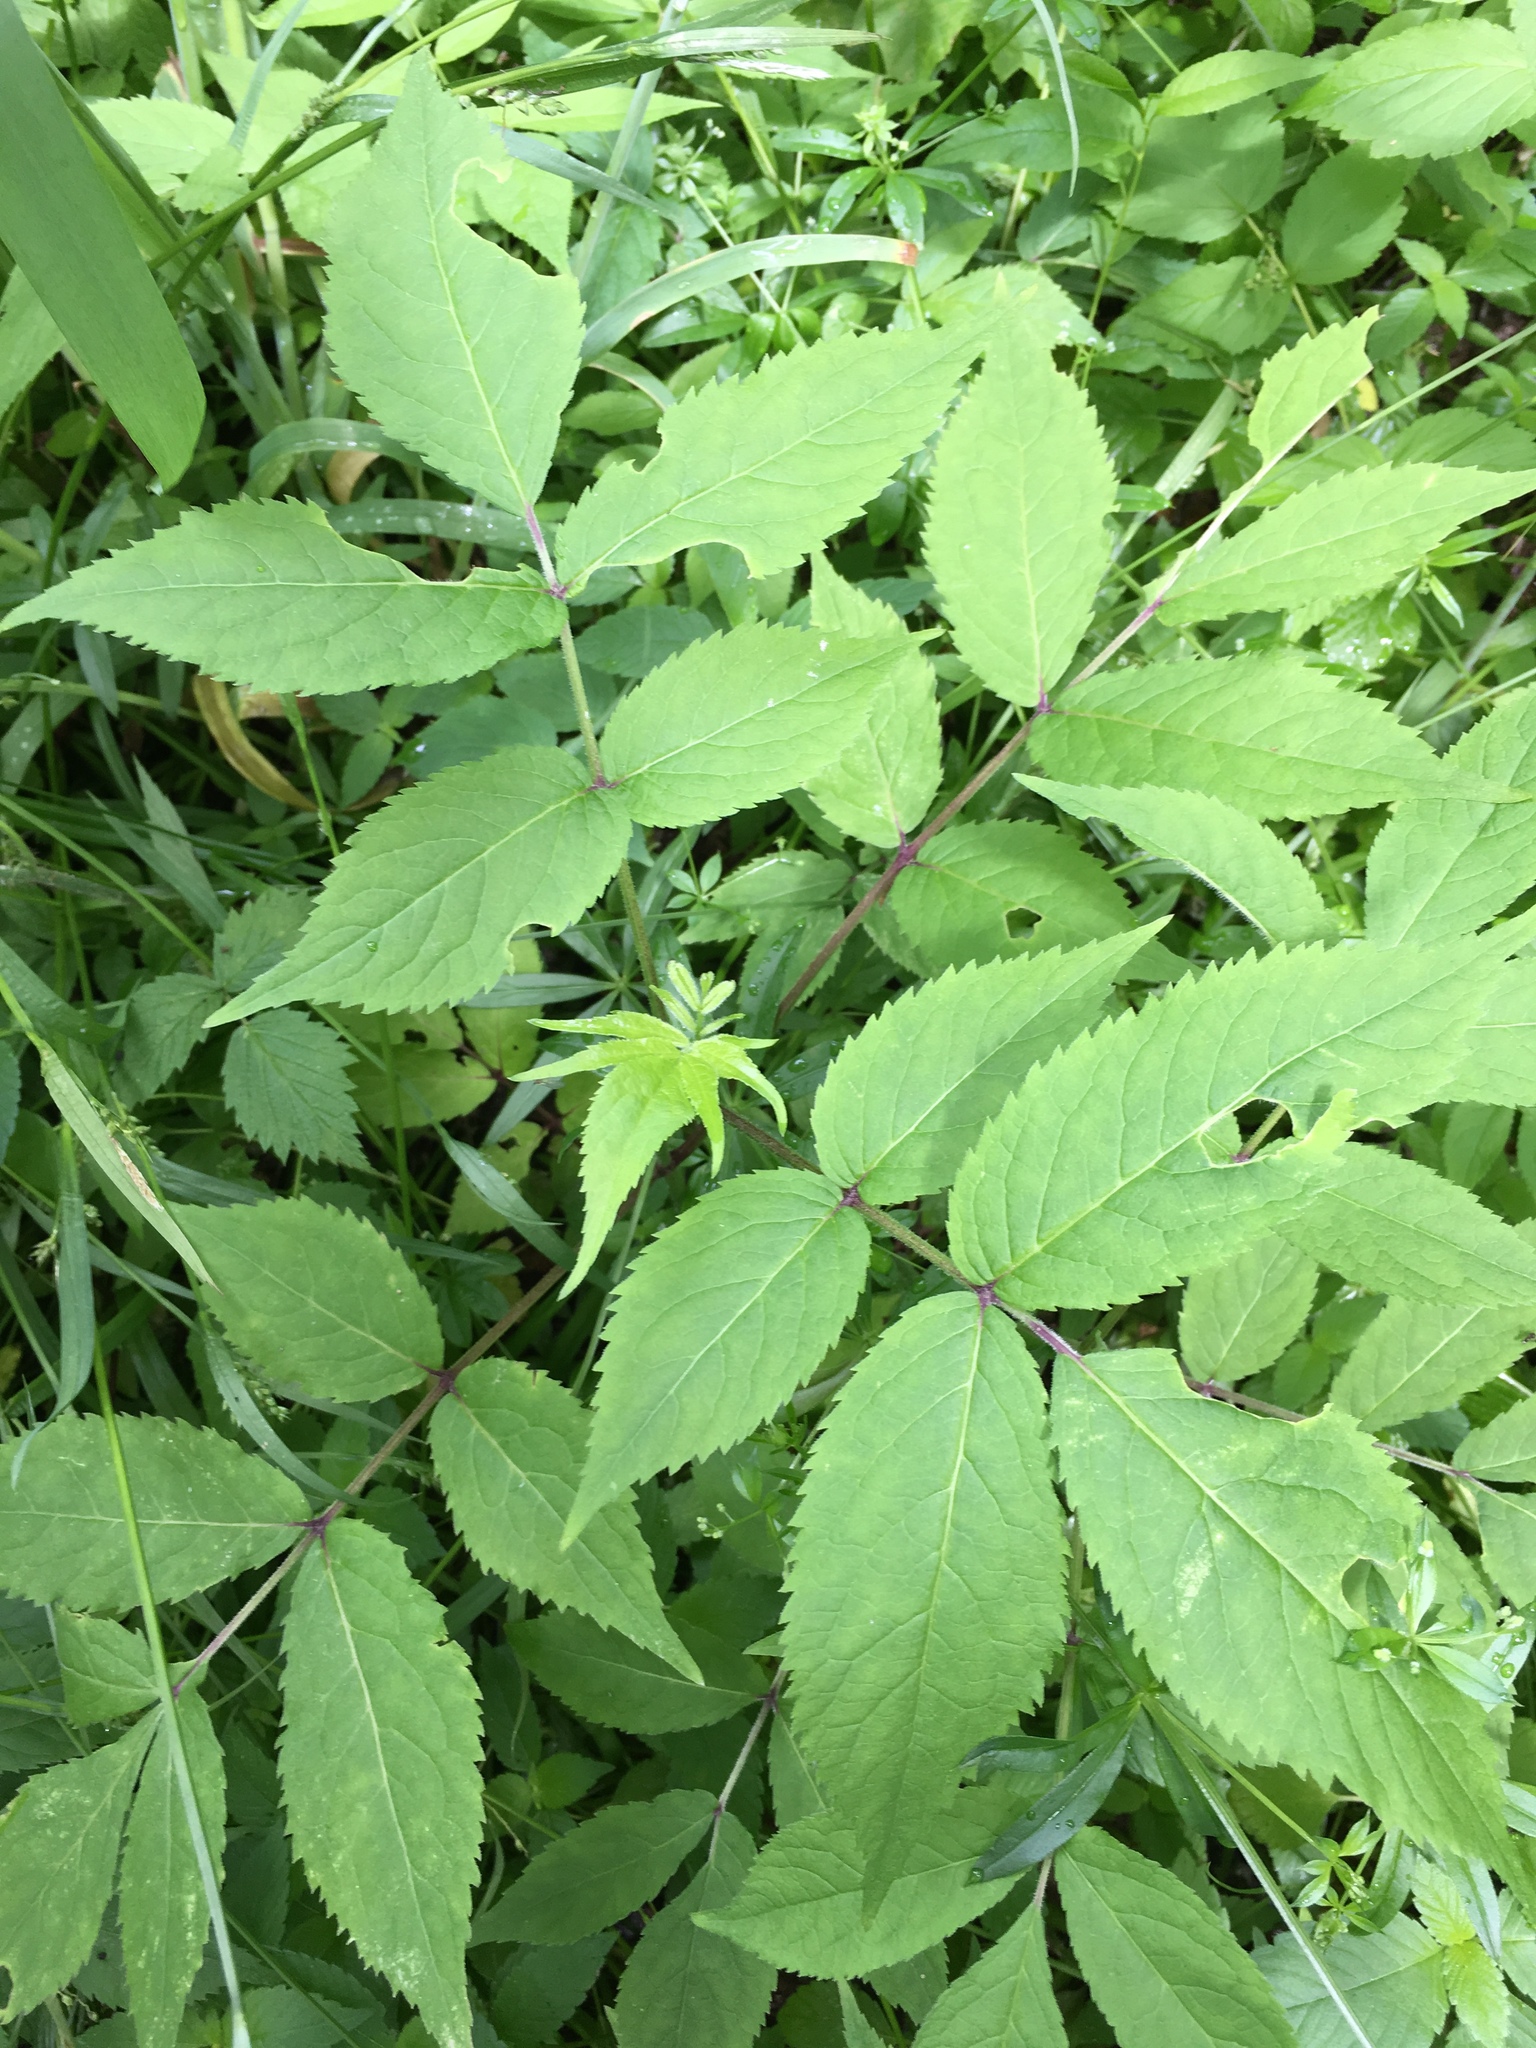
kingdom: Plantae
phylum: Tracheophyta
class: Magnoliopsida
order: Dipsacales
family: Viburnaceae
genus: Sambucus
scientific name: Sambucus racemosa
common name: Red-berried elder
